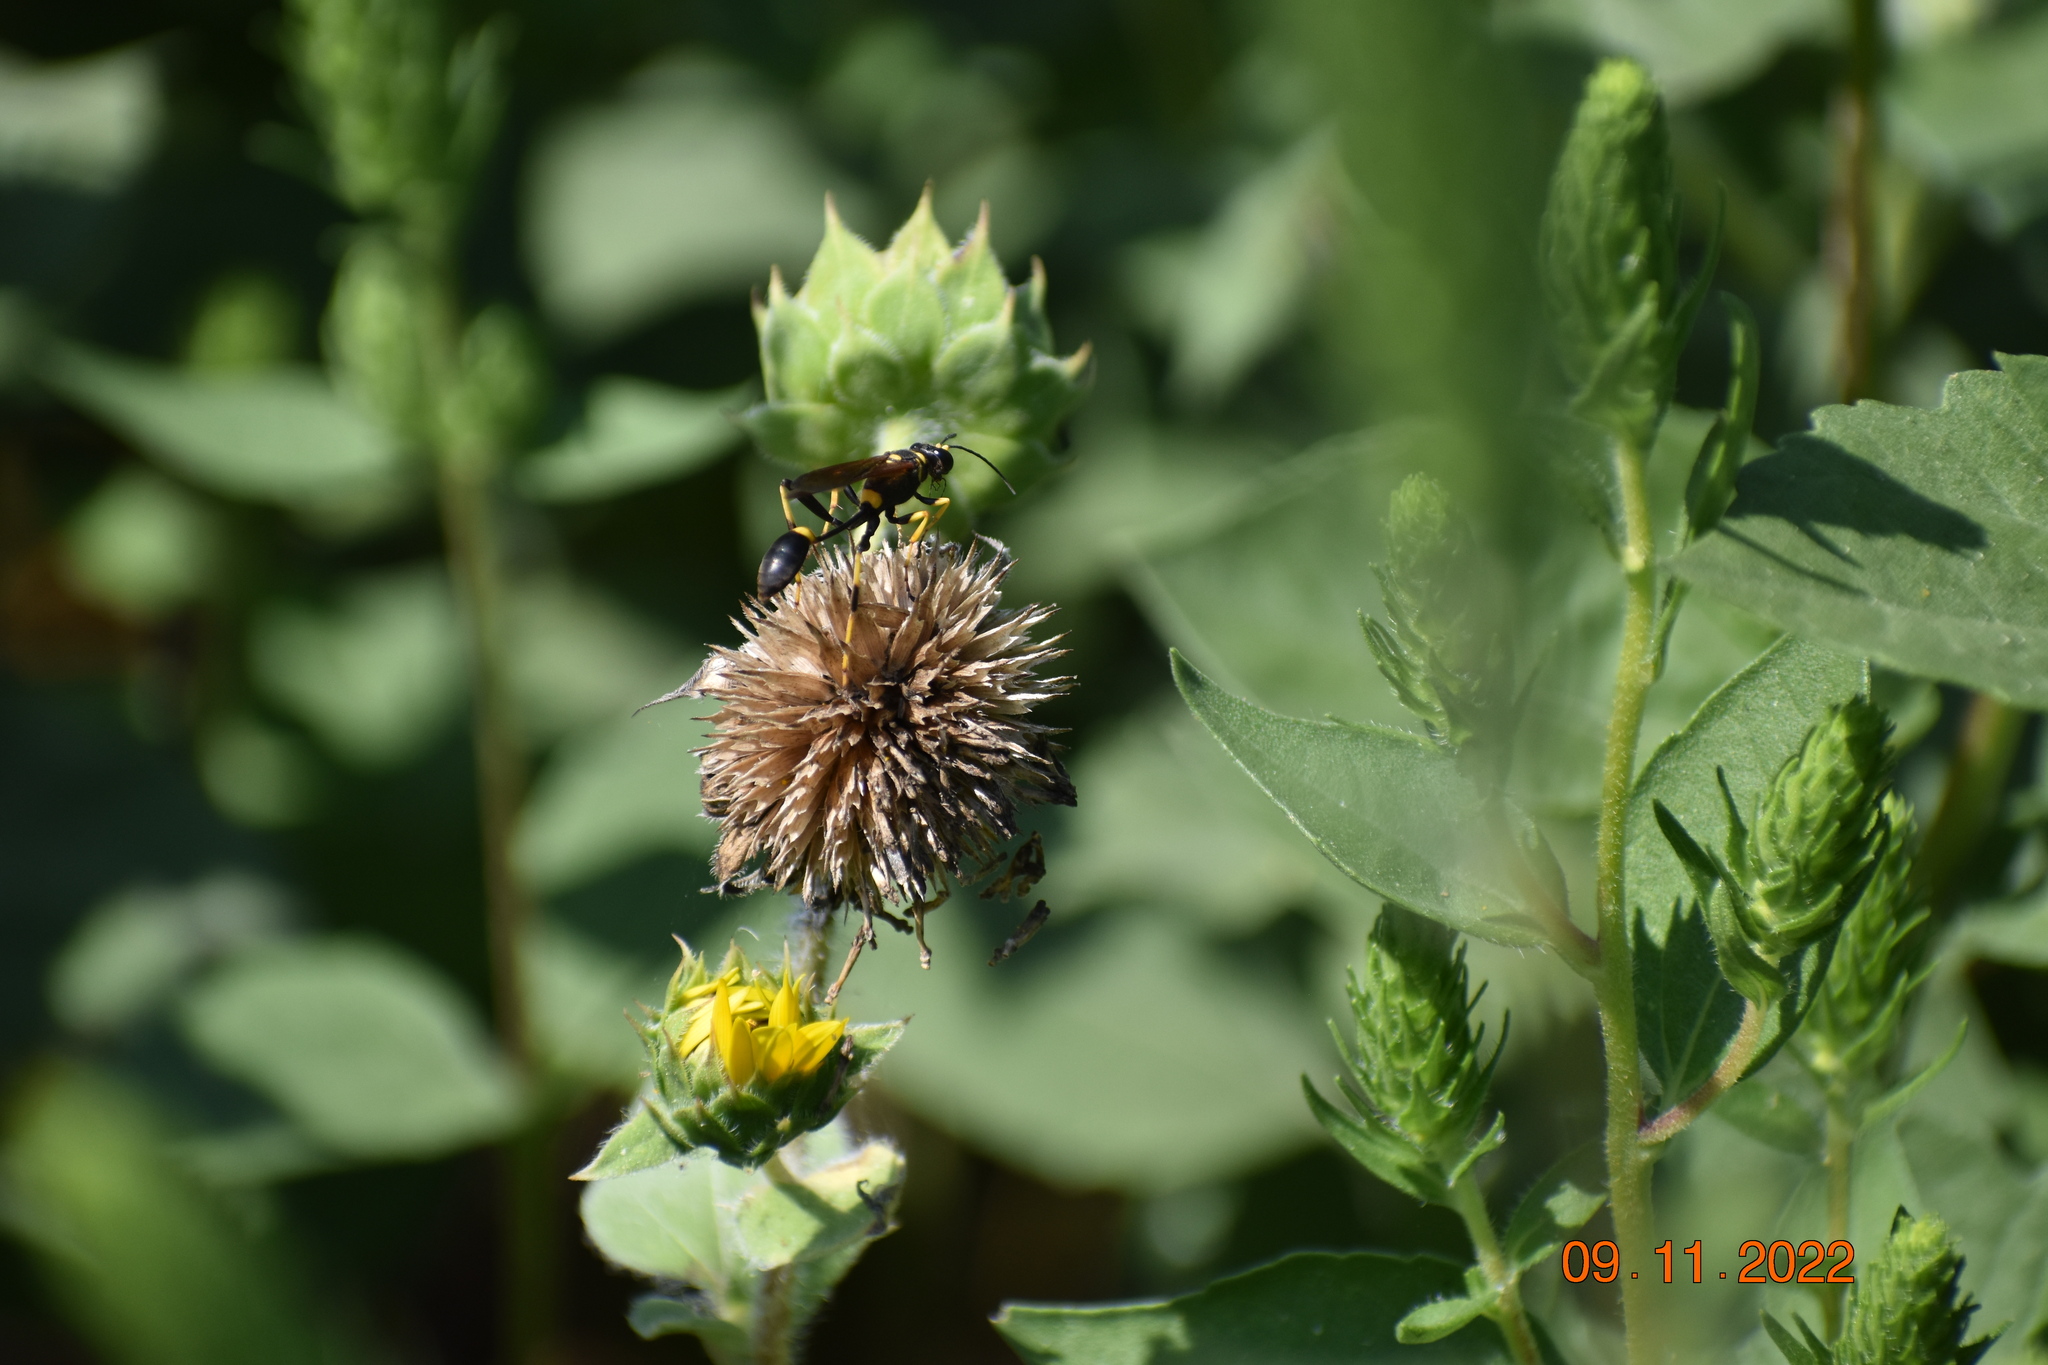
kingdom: Animalia
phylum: Arthropoda
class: Insecta
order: Hymenoptera
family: Sphecidae
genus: Sceliphron
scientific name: Sceliphron caementarium
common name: Mud dauber
